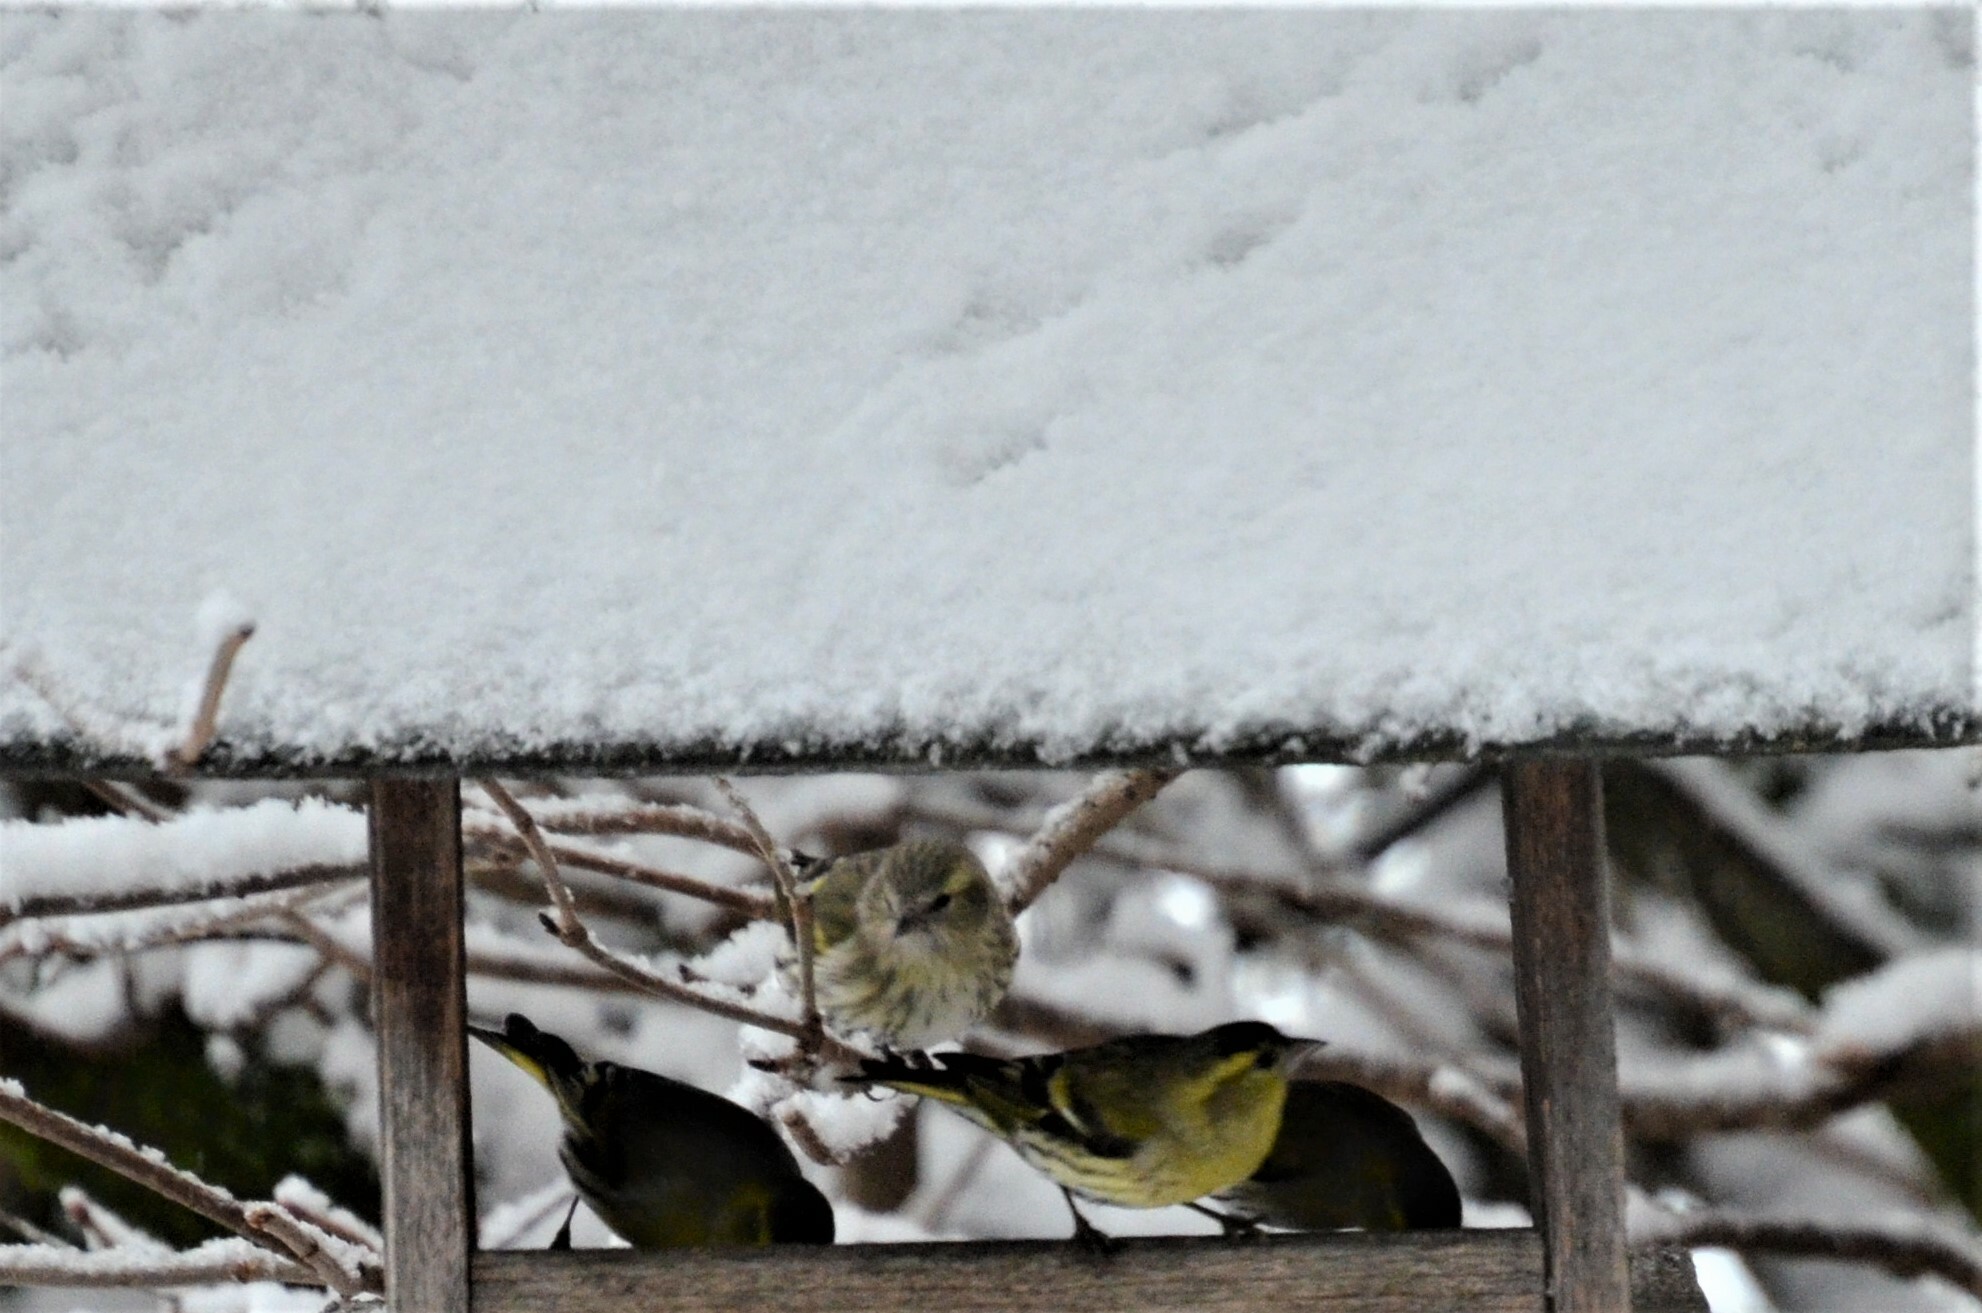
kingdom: Animalia
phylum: Chordata
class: Aves
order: Passeriformes
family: Fringillidae
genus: Spinus
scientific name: Spinus spinus
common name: Eurasian siskin
